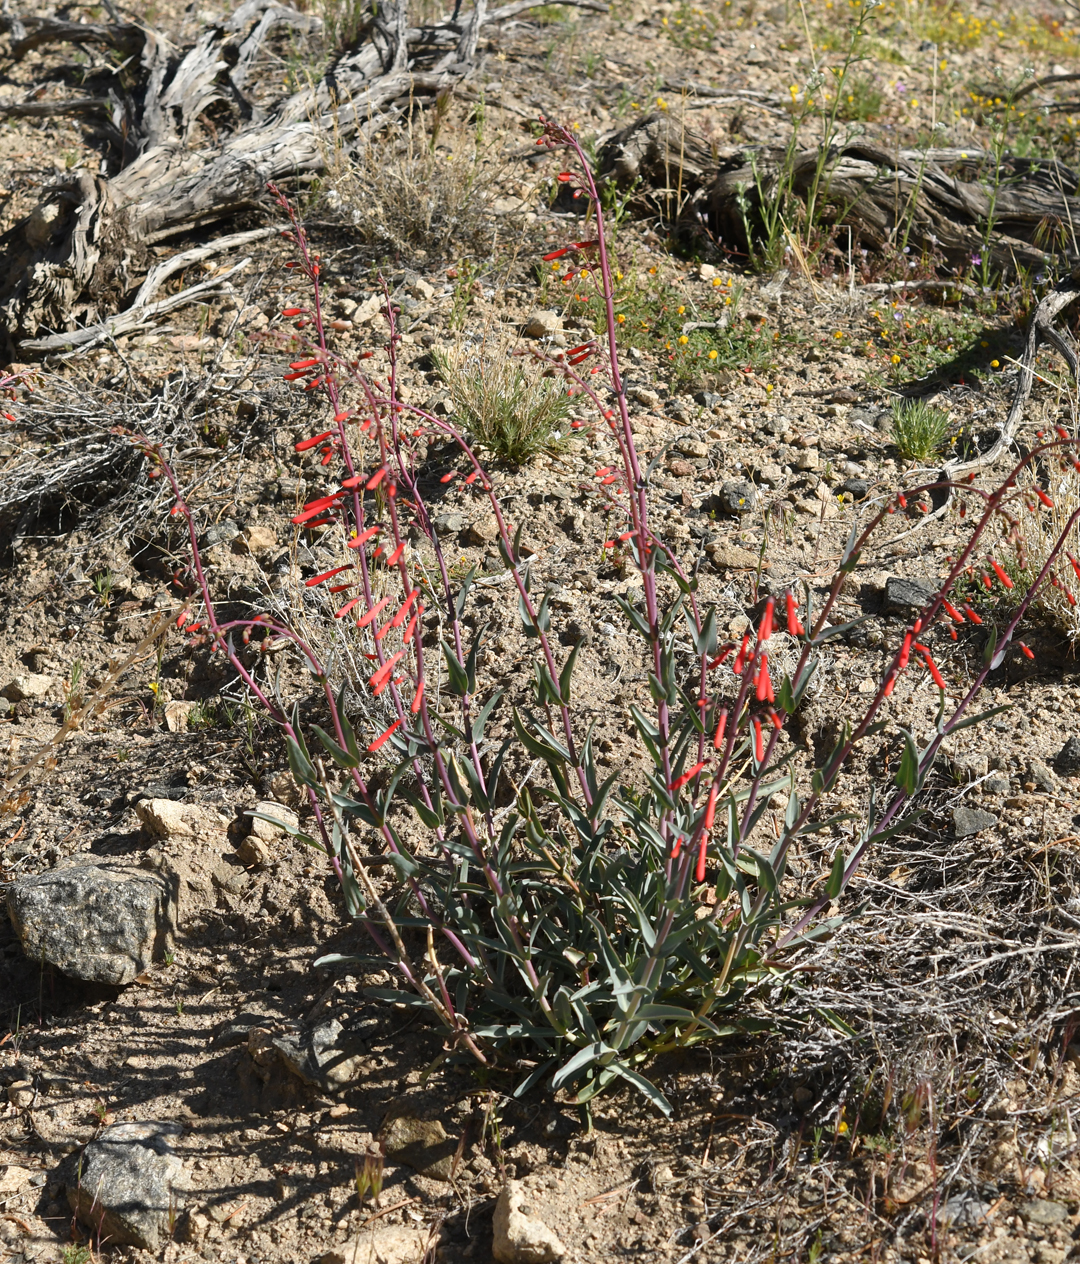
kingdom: Plantae
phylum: Tracheophyta
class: Magnoliopsida
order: Lamiales
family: Plantaginaceae
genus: Penstemon
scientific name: Penstemon centranthifolius
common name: Scarlet bugler
